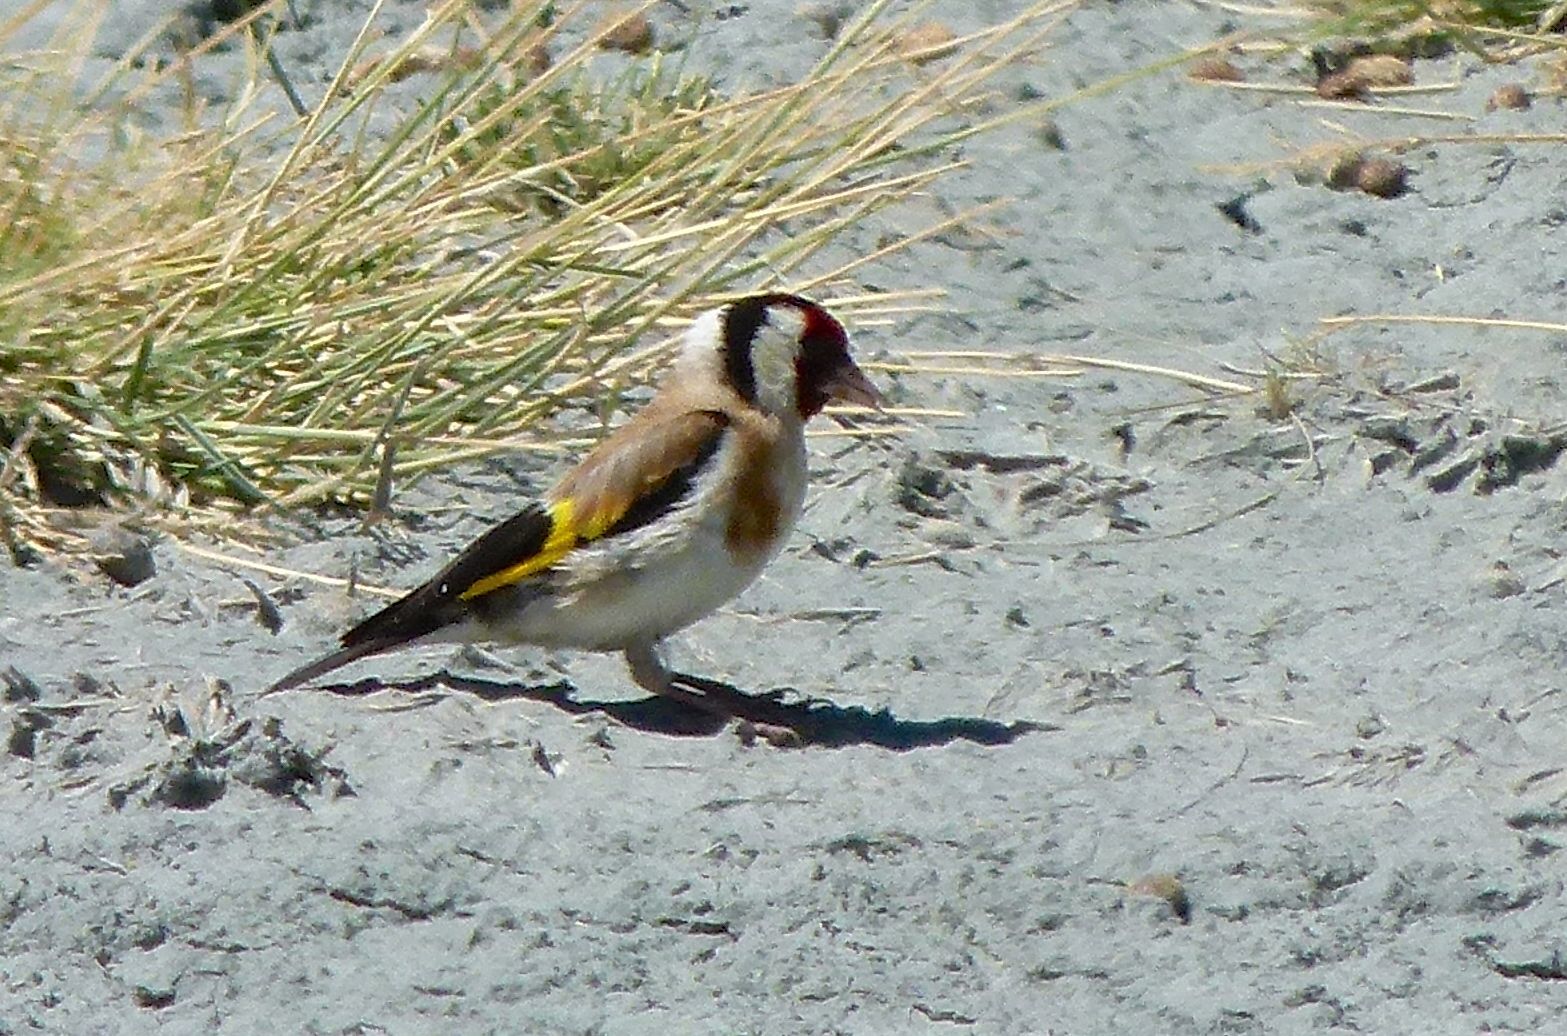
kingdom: Animalia
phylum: Chordata
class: Aves
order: Passeriformes
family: Fringillidae
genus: Carduelis
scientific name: Carduelis carduelis
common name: European goldfinch
